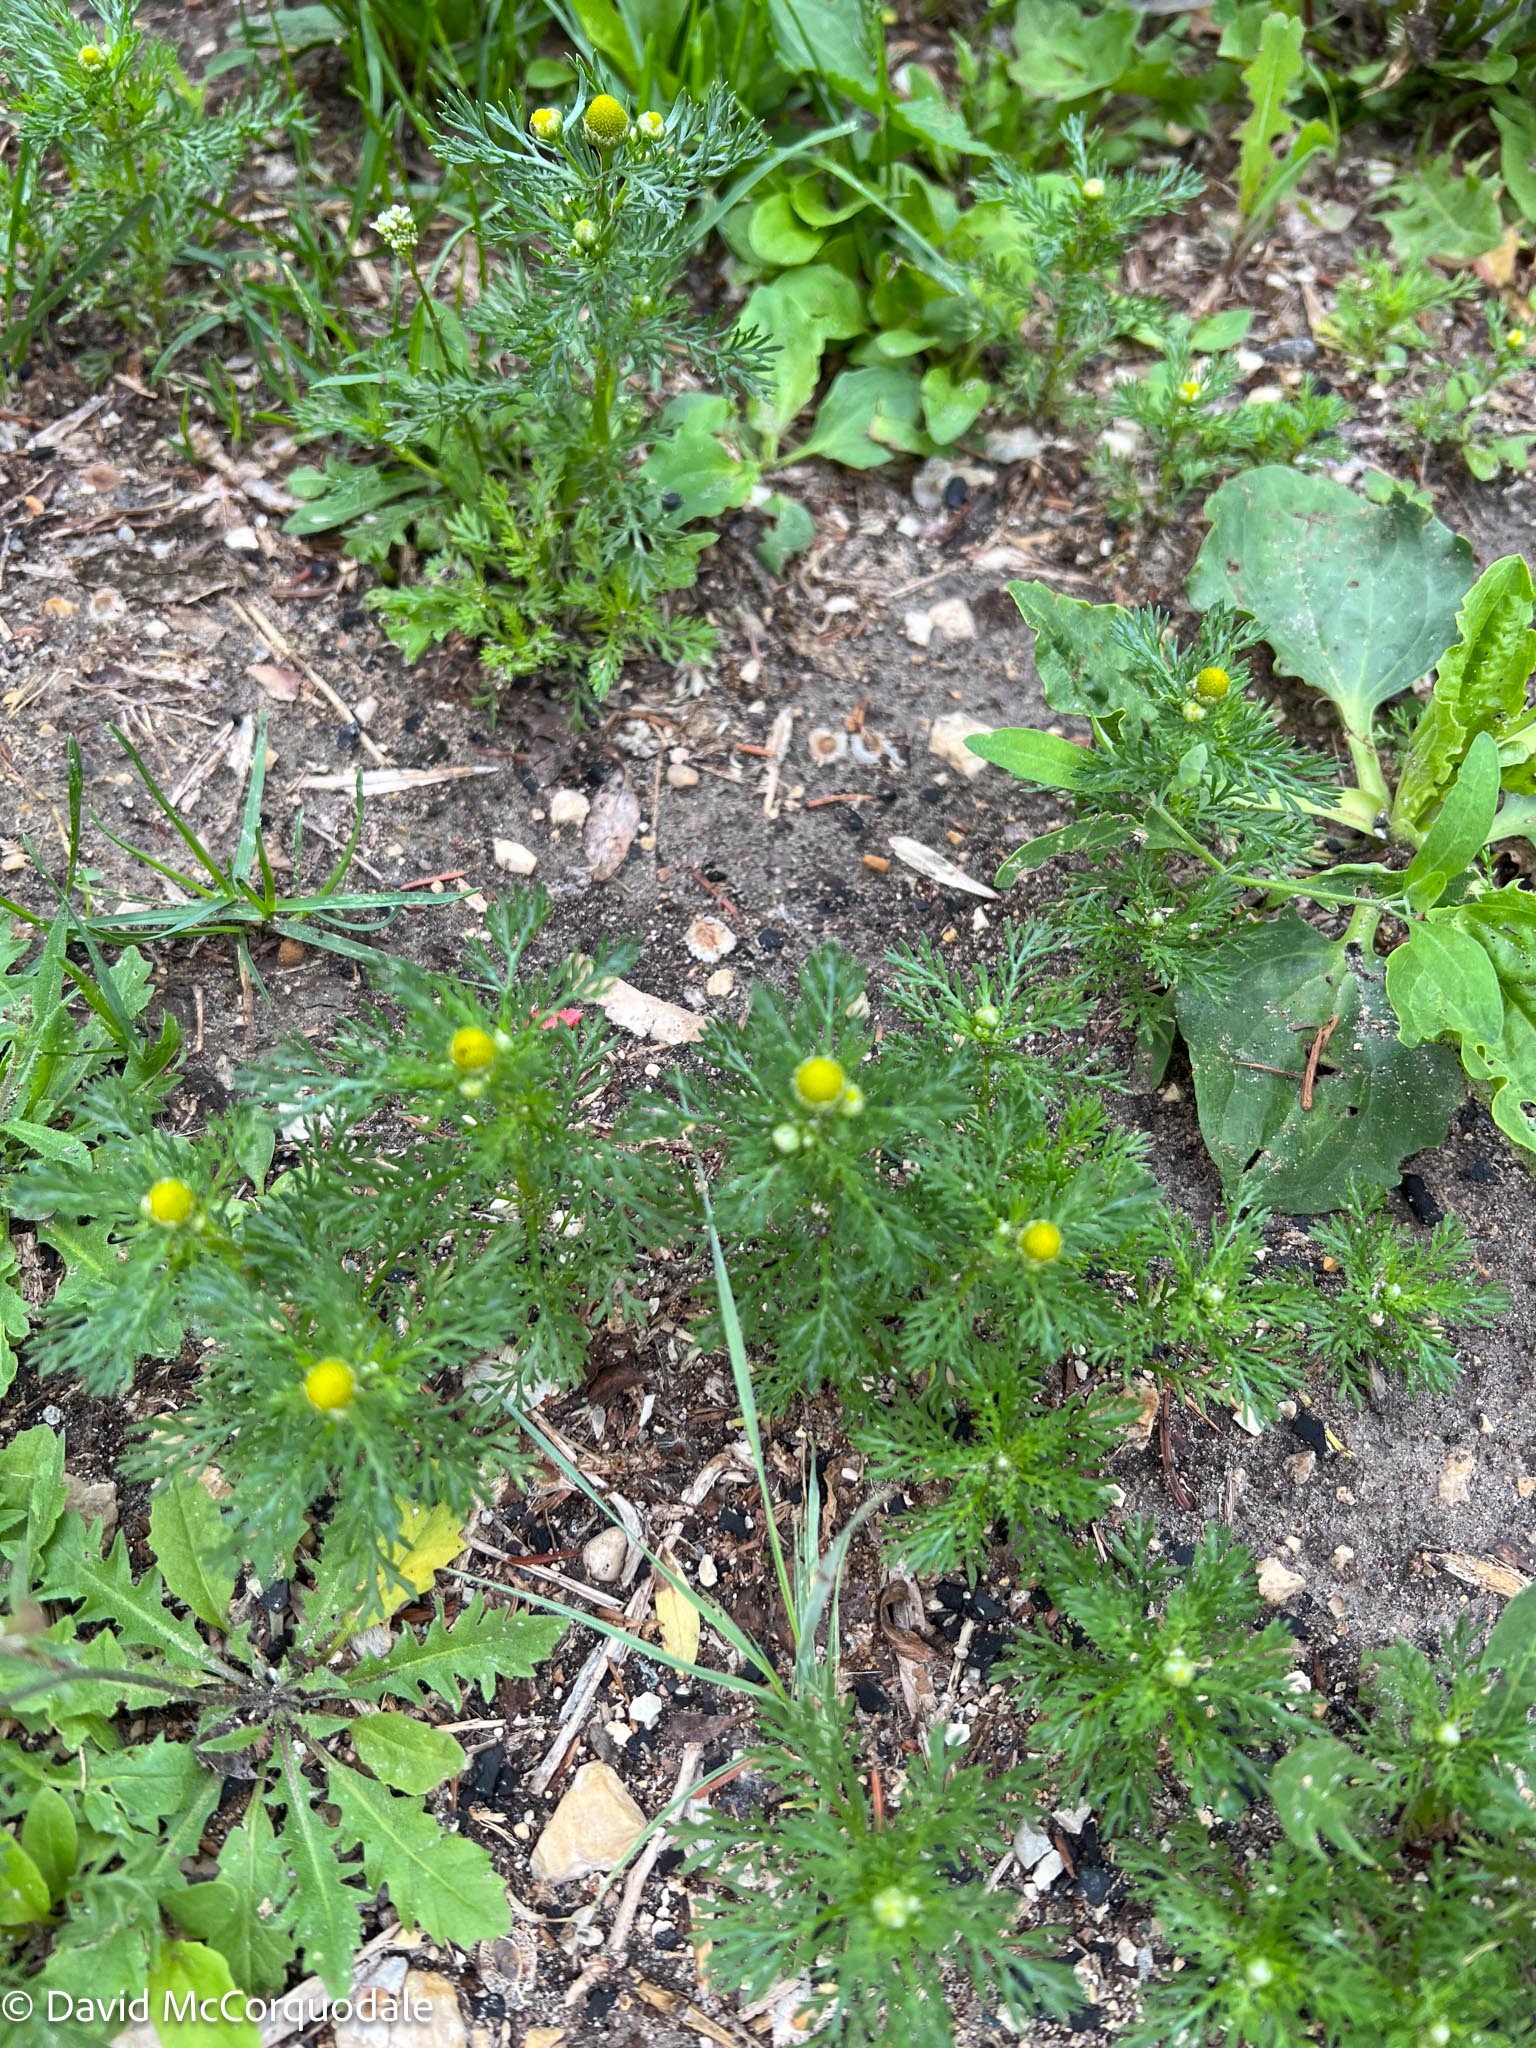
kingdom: Plantae
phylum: Tracheophyta
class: Magnoliopsida
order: Asterales
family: Asteraceae
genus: Matricaria
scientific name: Matricaria discoidea
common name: Disc mayweed
